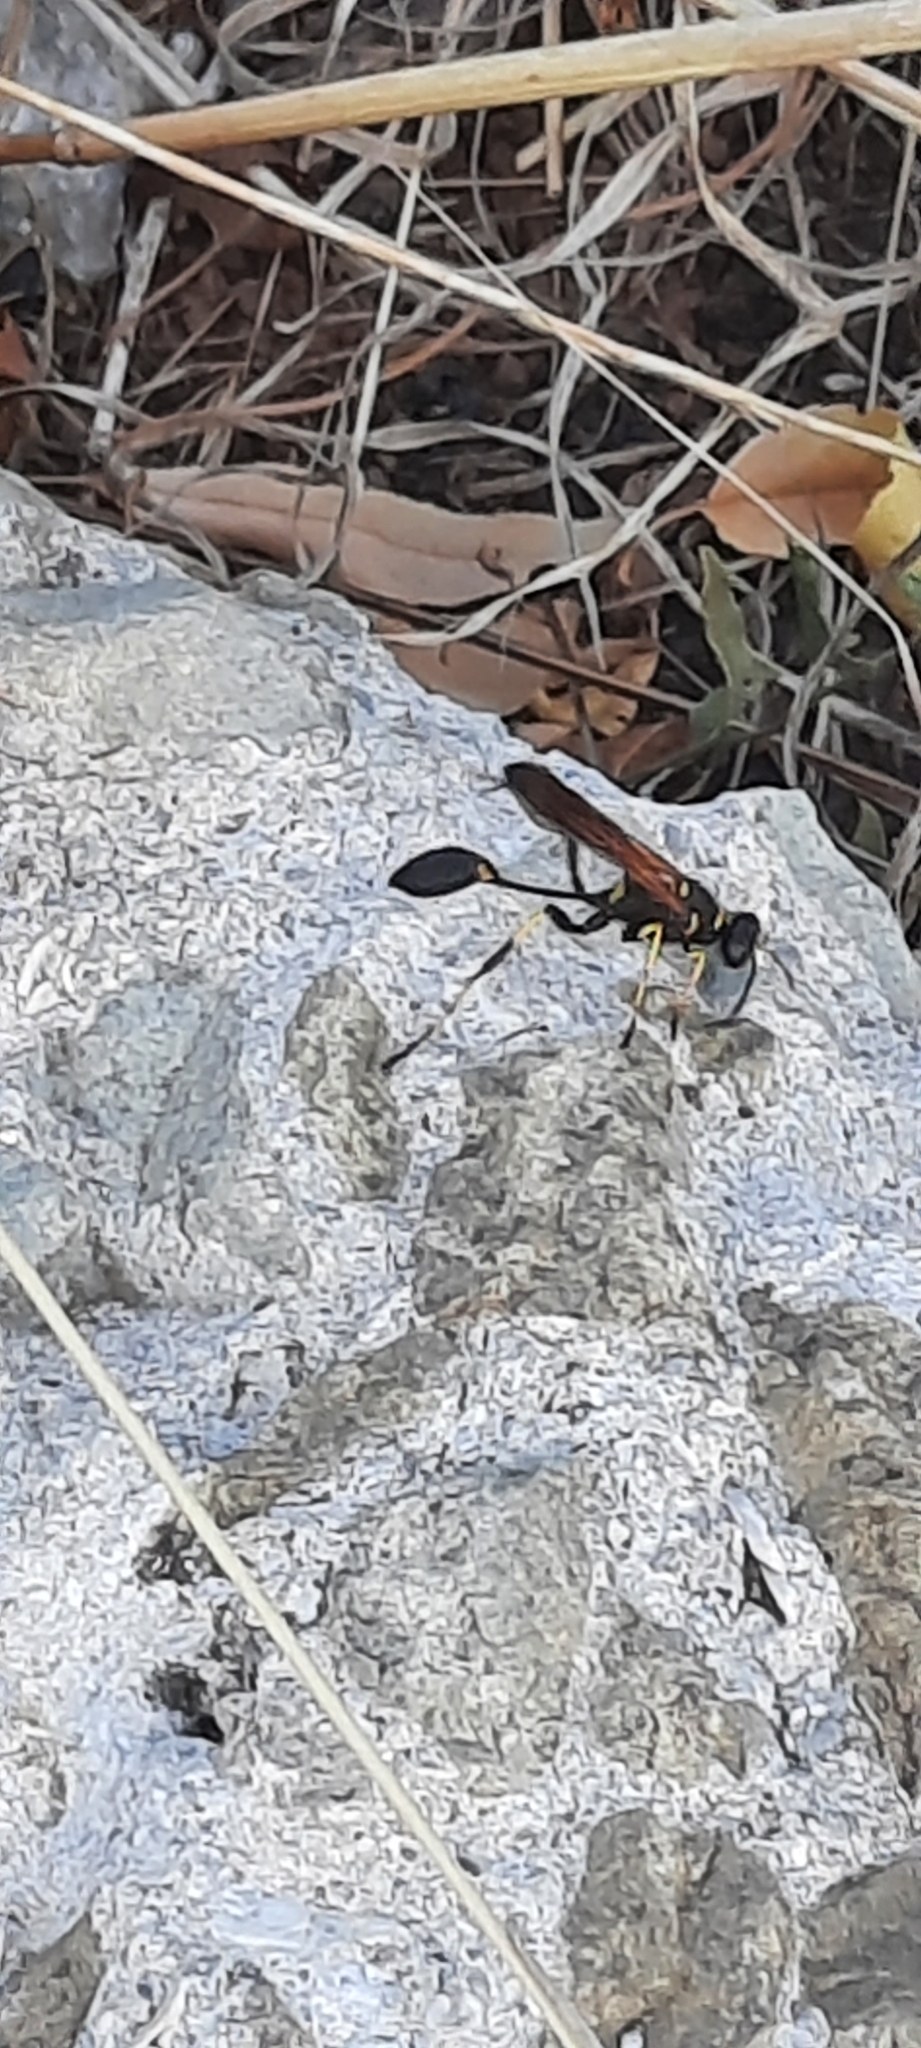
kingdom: Animalia
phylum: Arthropoda
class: Insecta
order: Hymenoptera
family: Sphecidae
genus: Sceliphron
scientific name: Sceliphron caementarium
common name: Mud dauber
